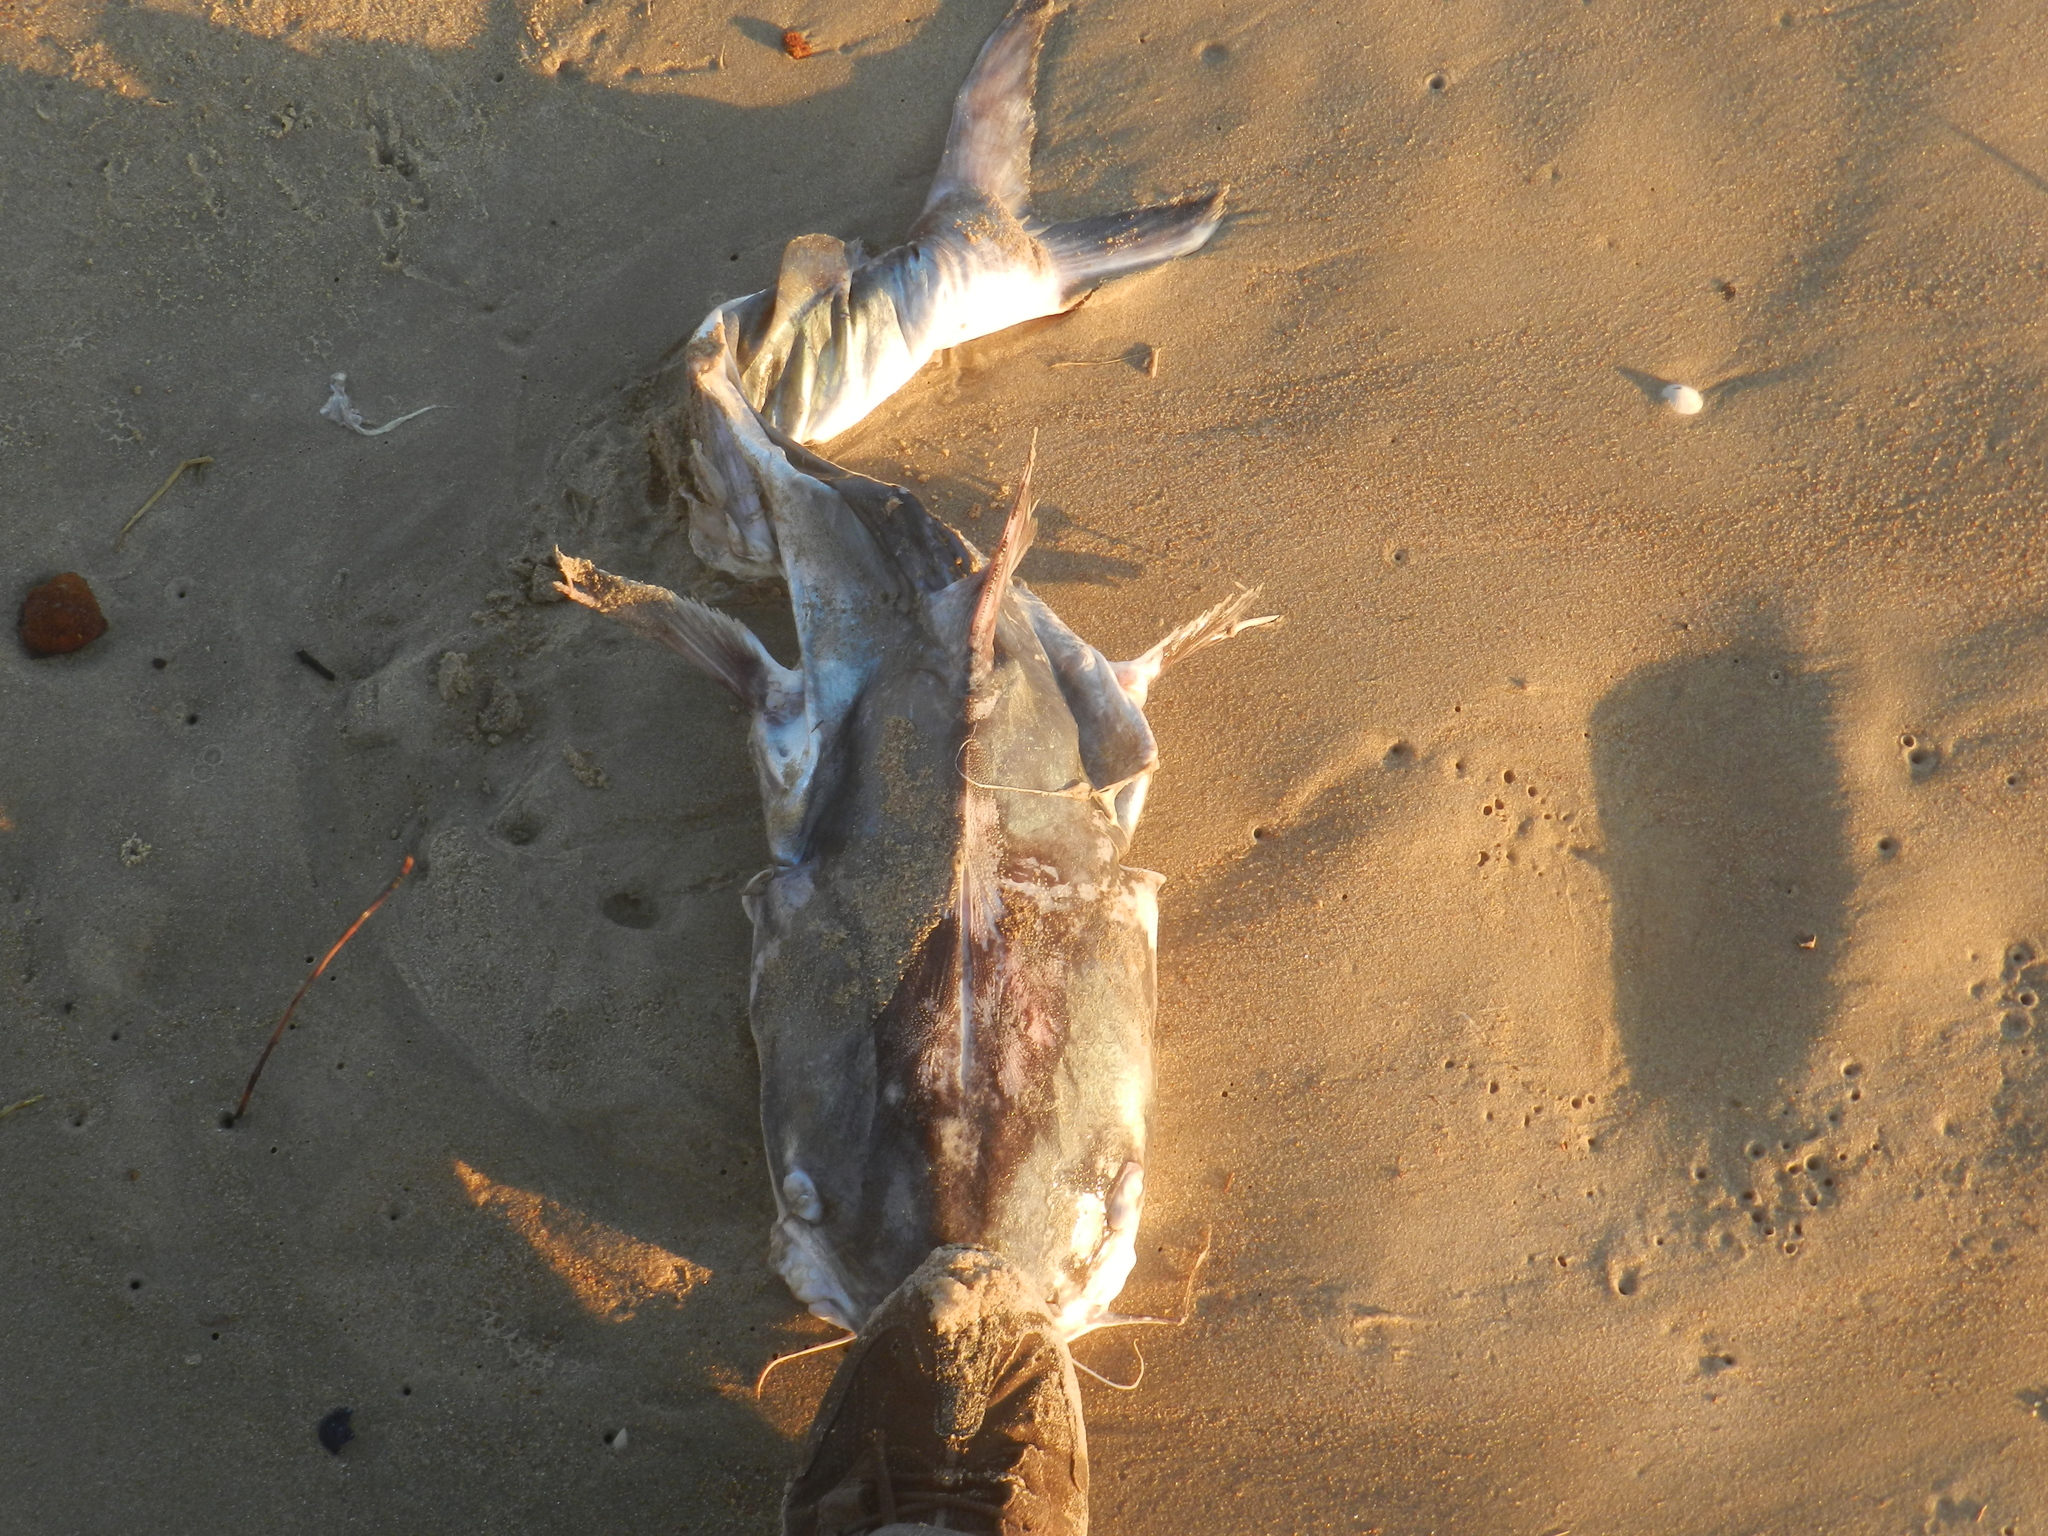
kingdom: Animalia
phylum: Chordata
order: Siluriformes
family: Ariidae
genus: Genidens
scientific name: Genidens barbus
